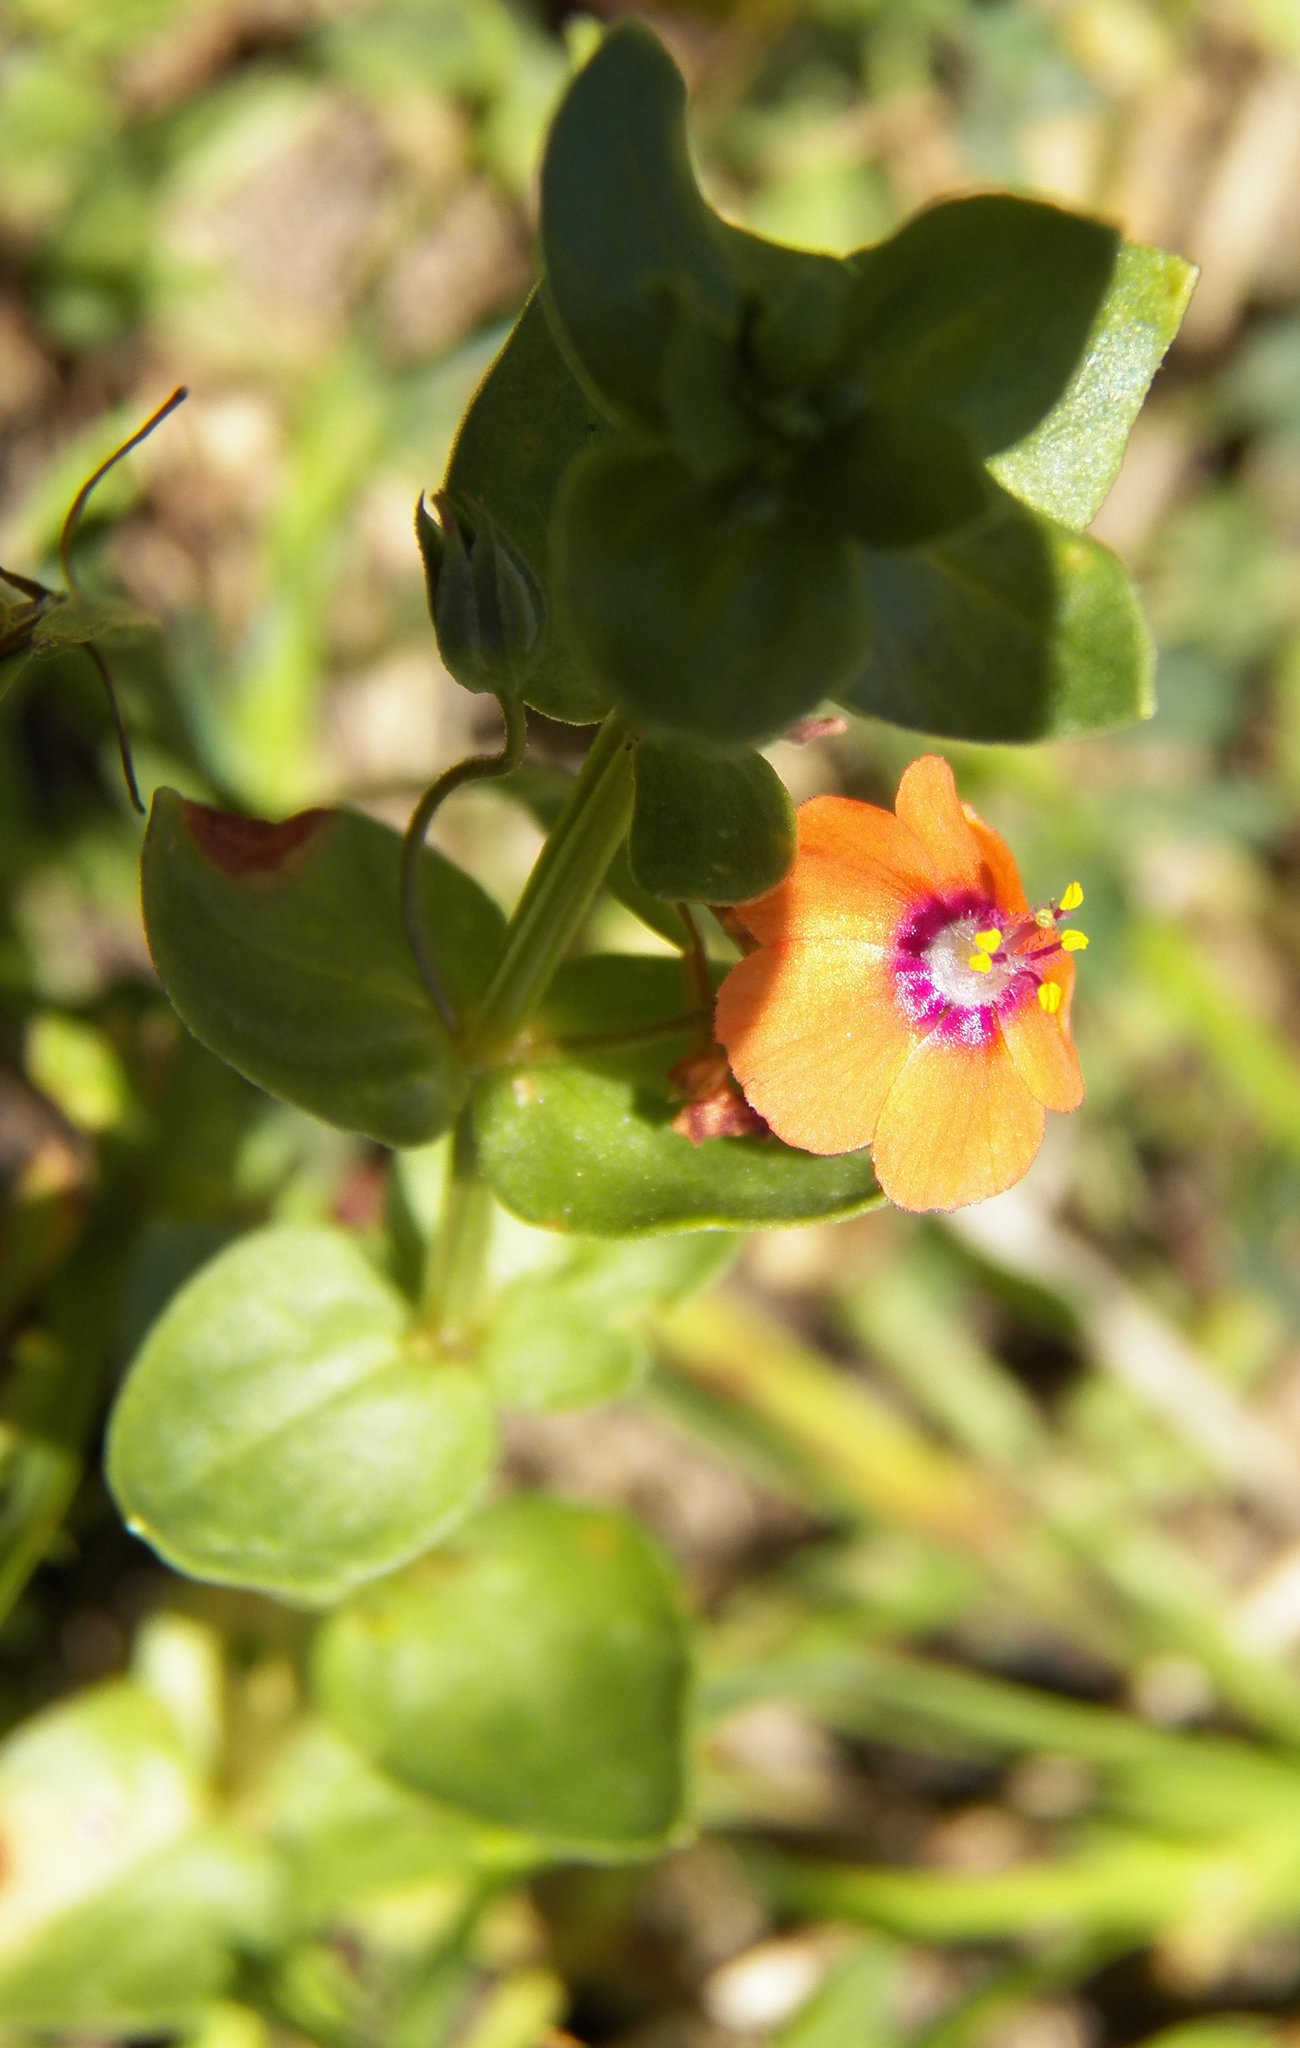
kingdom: Plantae
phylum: Tracheophyta
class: Magnoliopsida
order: Ericales
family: Primulaceae
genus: Lysimachia
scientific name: Lysimachia arvensis
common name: Scarlet pimpernel
